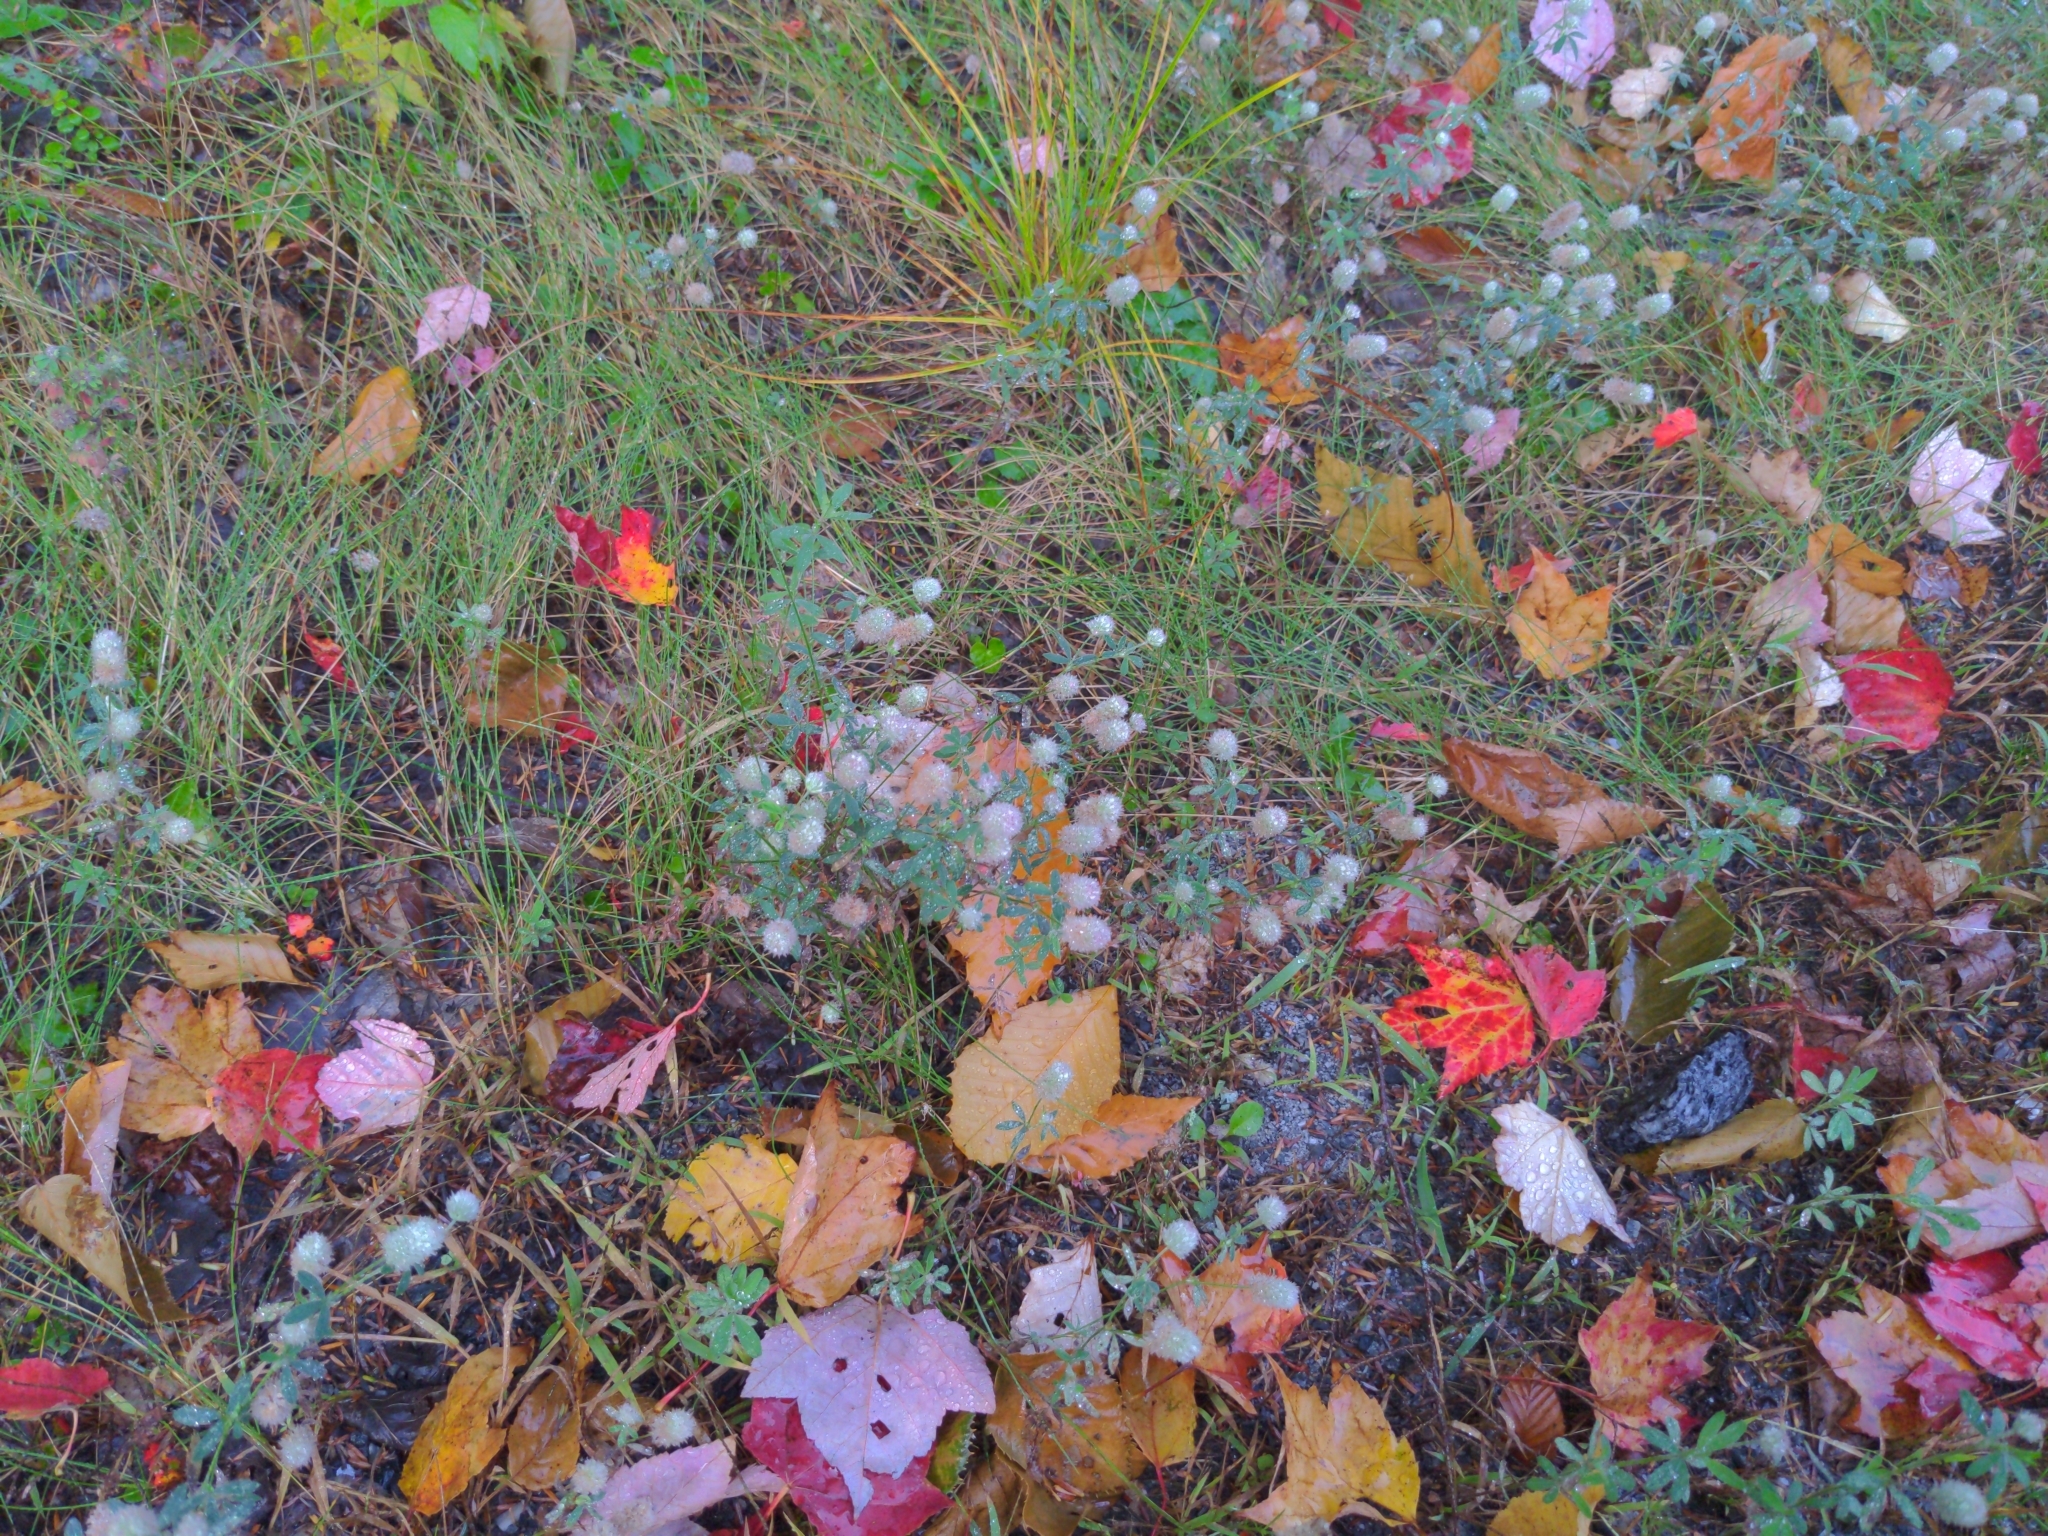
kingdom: Plantae
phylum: Tracheophyta
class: Magnoliopsida
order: Fabales
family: Fabaceae
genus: Trifolium
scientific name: Trifolium arvense
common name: Hare's-foot clover
